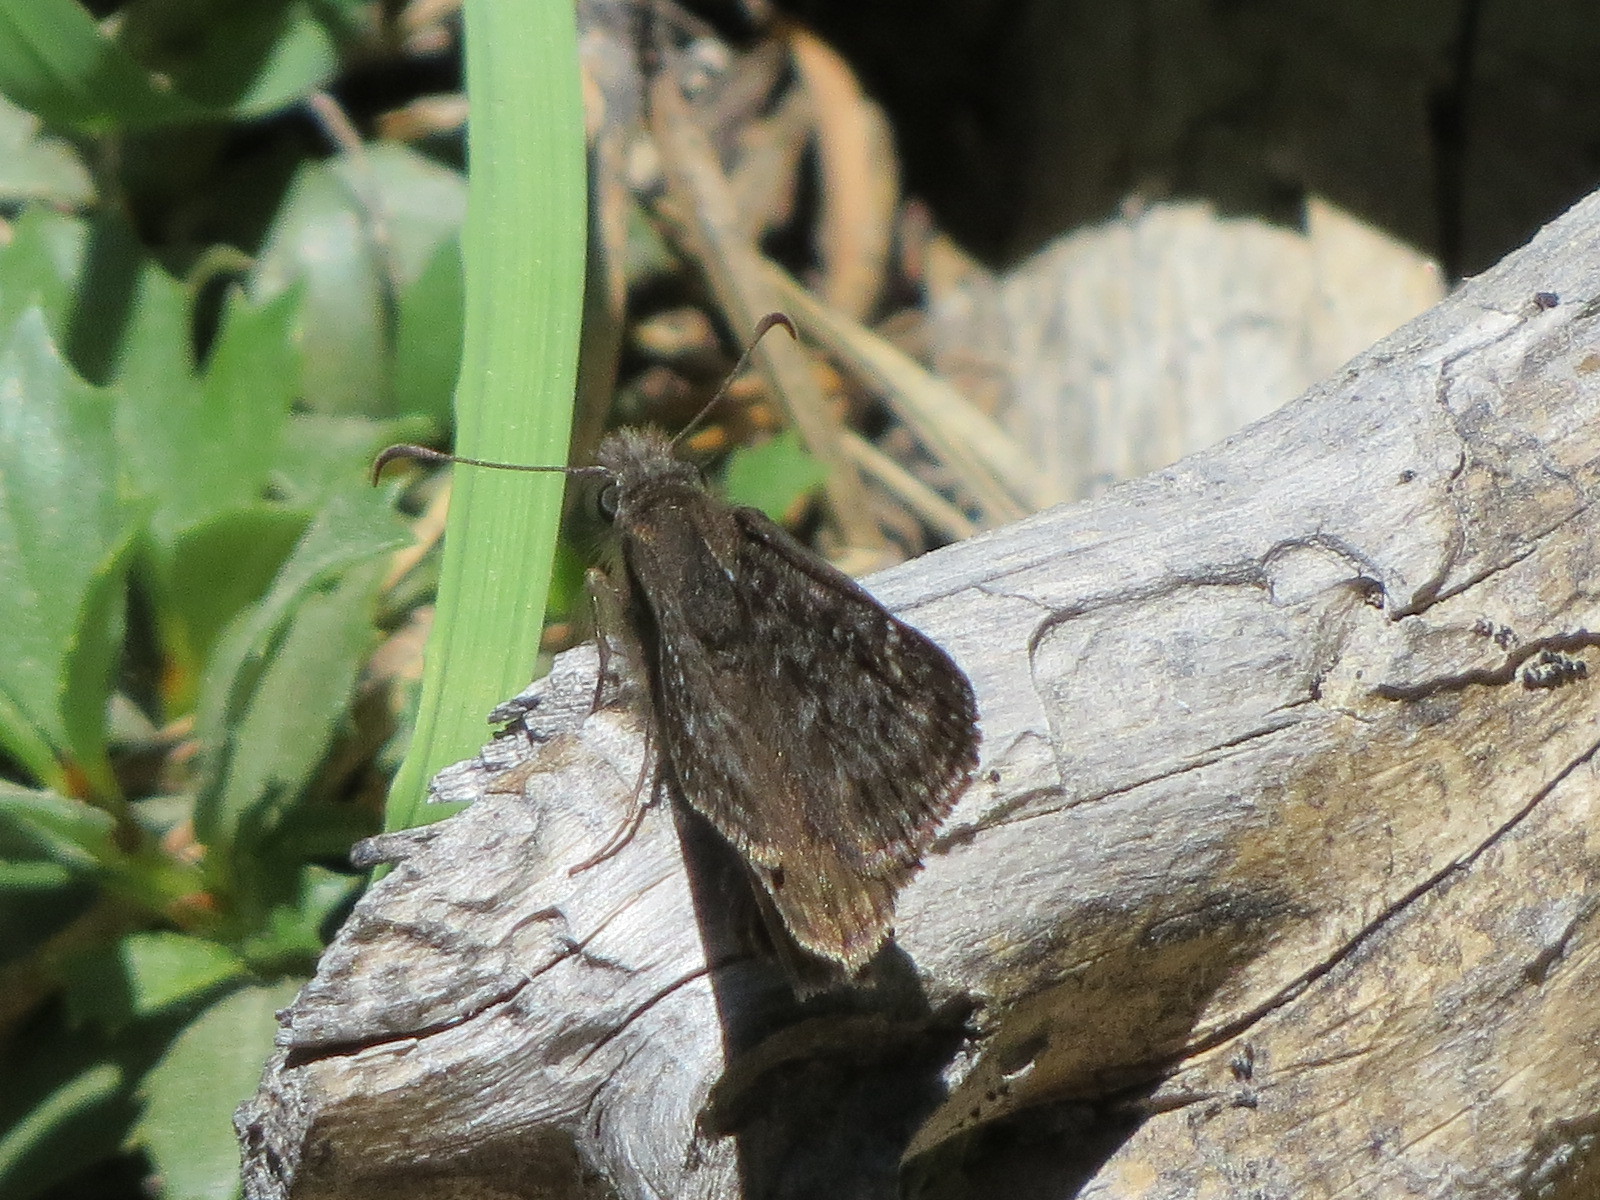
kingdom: Animalia
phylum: Arthropoda
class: Insecta
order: Lepidoptera
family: Hesperiidae
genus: Erynnis
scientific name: Erynnis propertius
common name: Propertius duskywing
